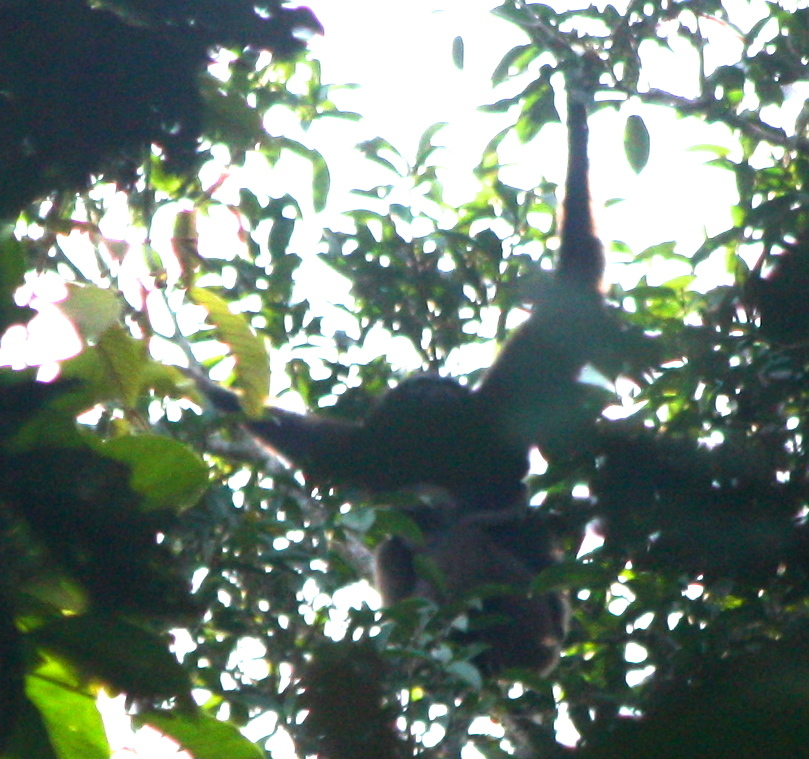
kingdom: Animalia
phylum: Chordata
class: Mammalia
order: Primates
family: Hylobatidae
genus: Hylobates
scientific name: Hylobates funereus
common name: East bornean gray gibbon
